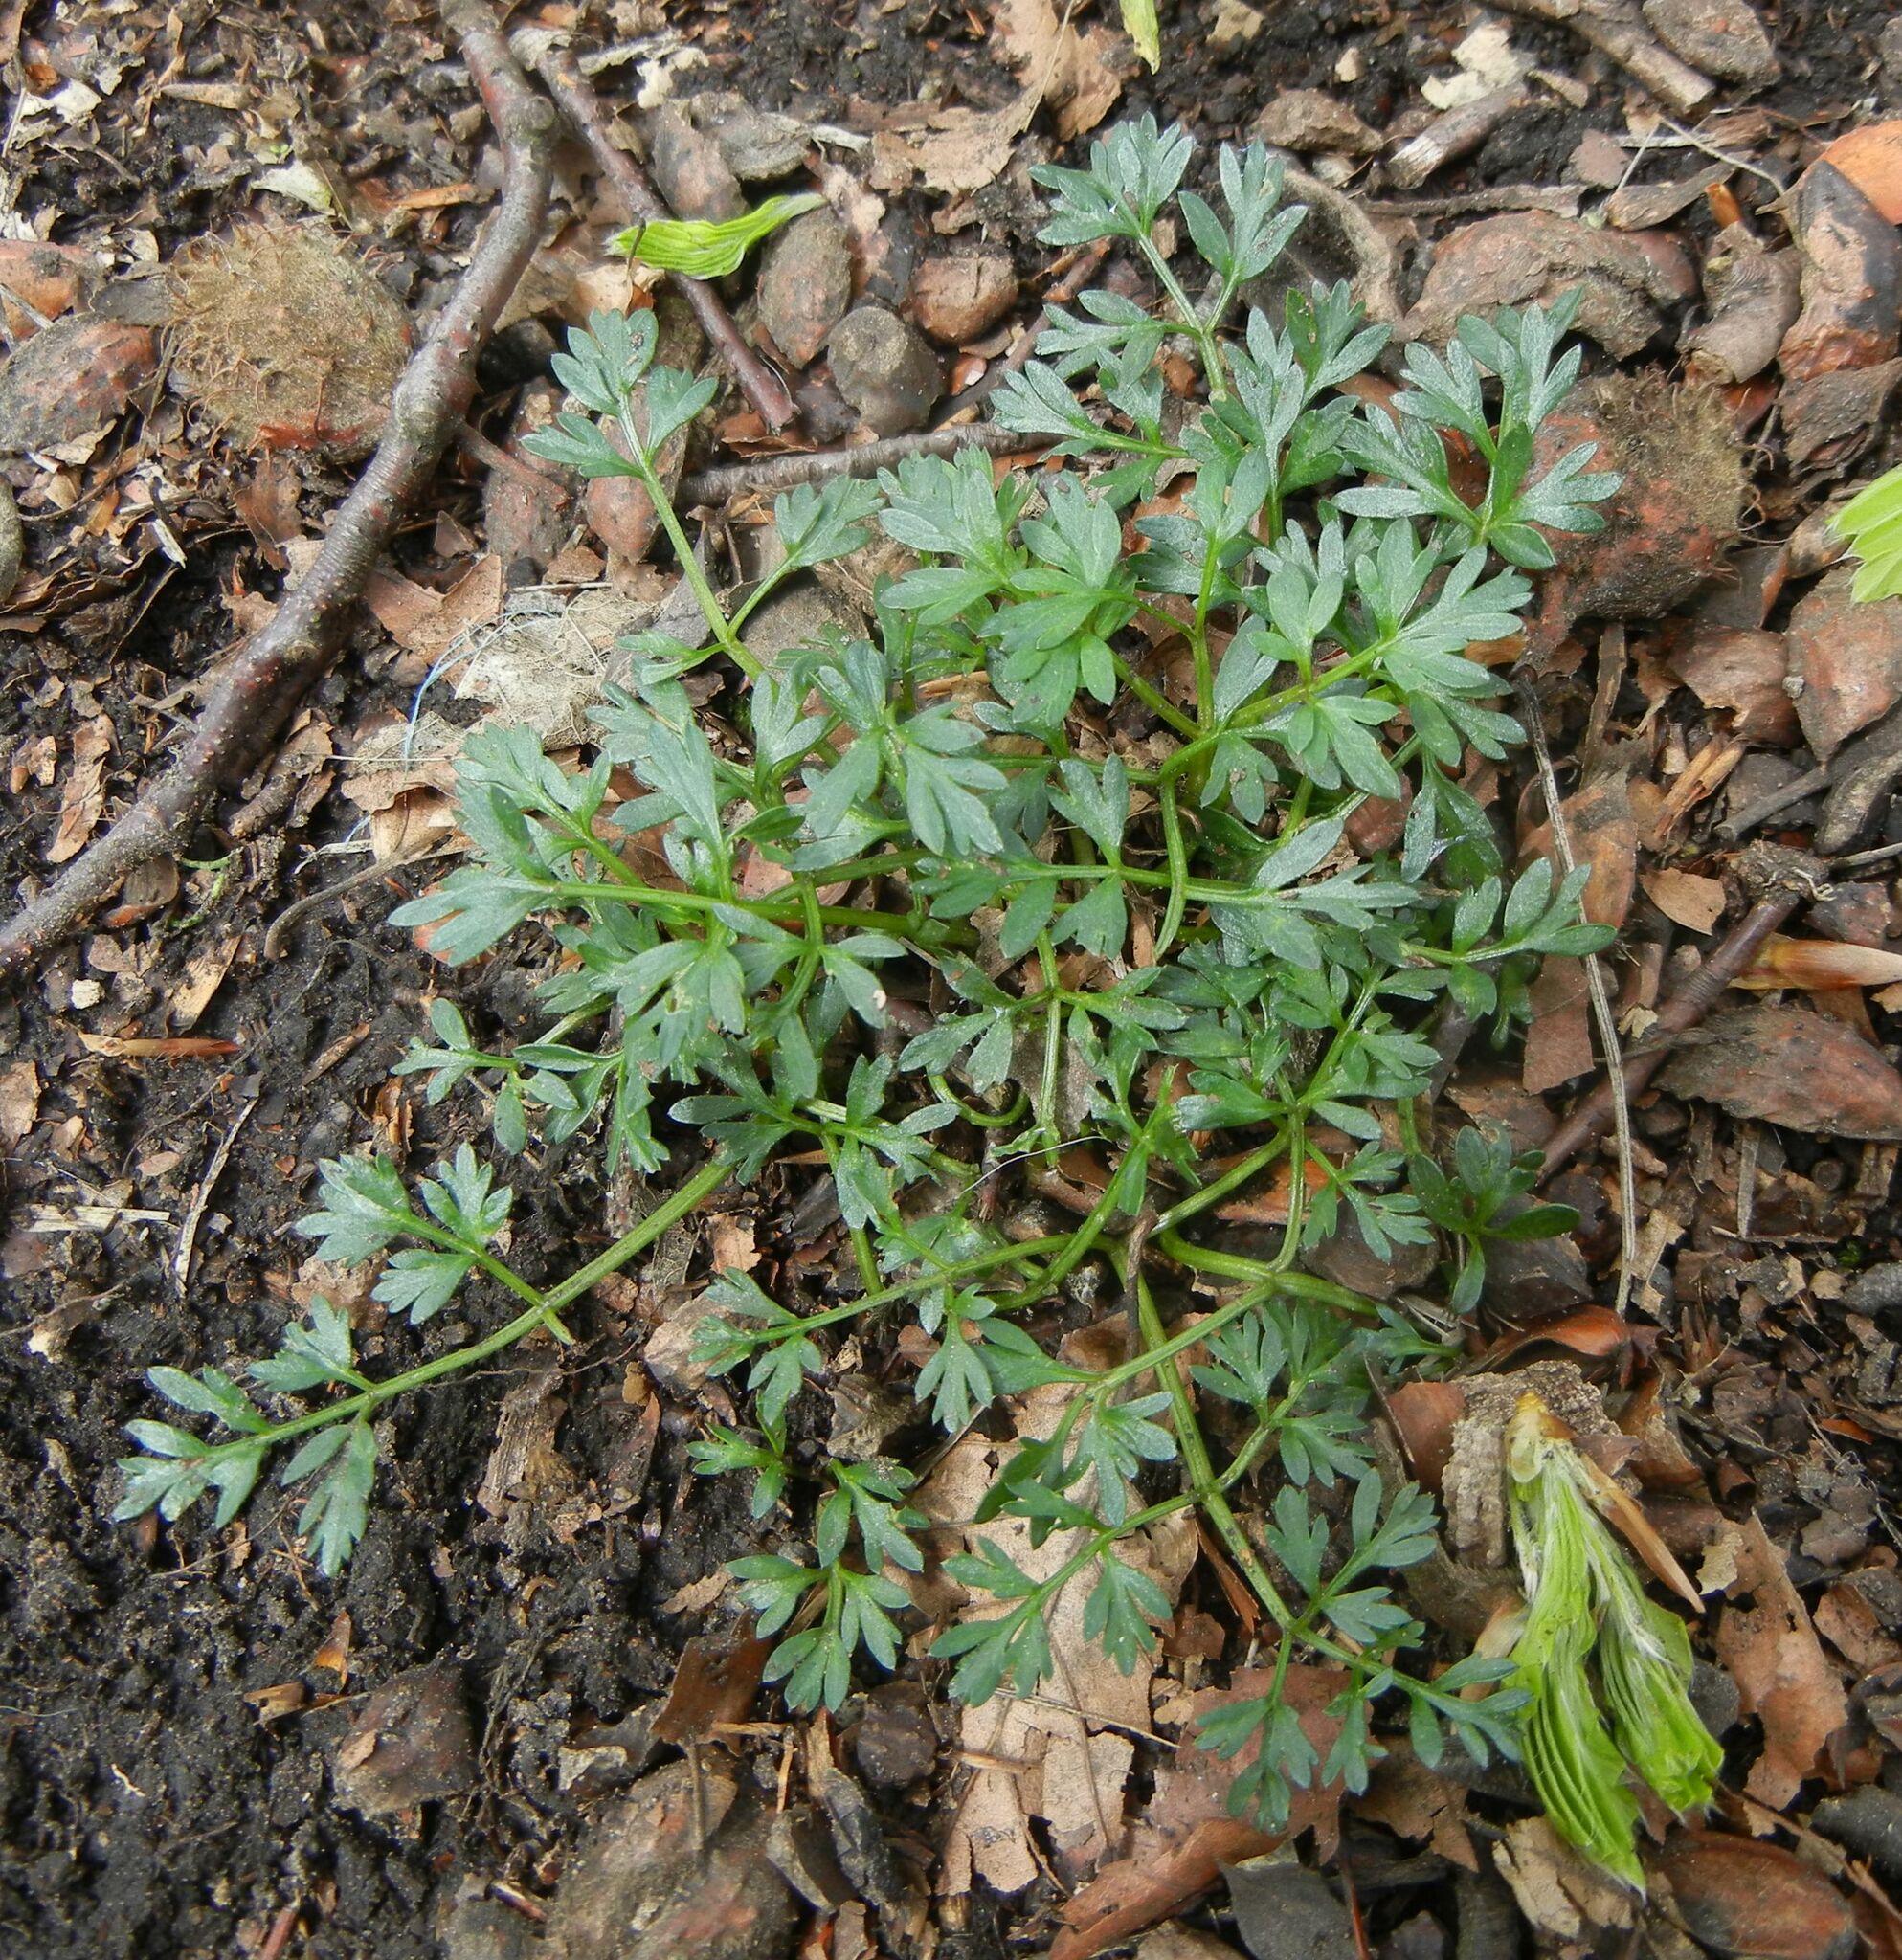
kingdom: Plantae
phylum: Tracheophyta
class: Magnoliopsida
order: Apiales
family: Apiaceae
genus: Conopodium
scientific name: Conopodium majus
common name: Pignut
